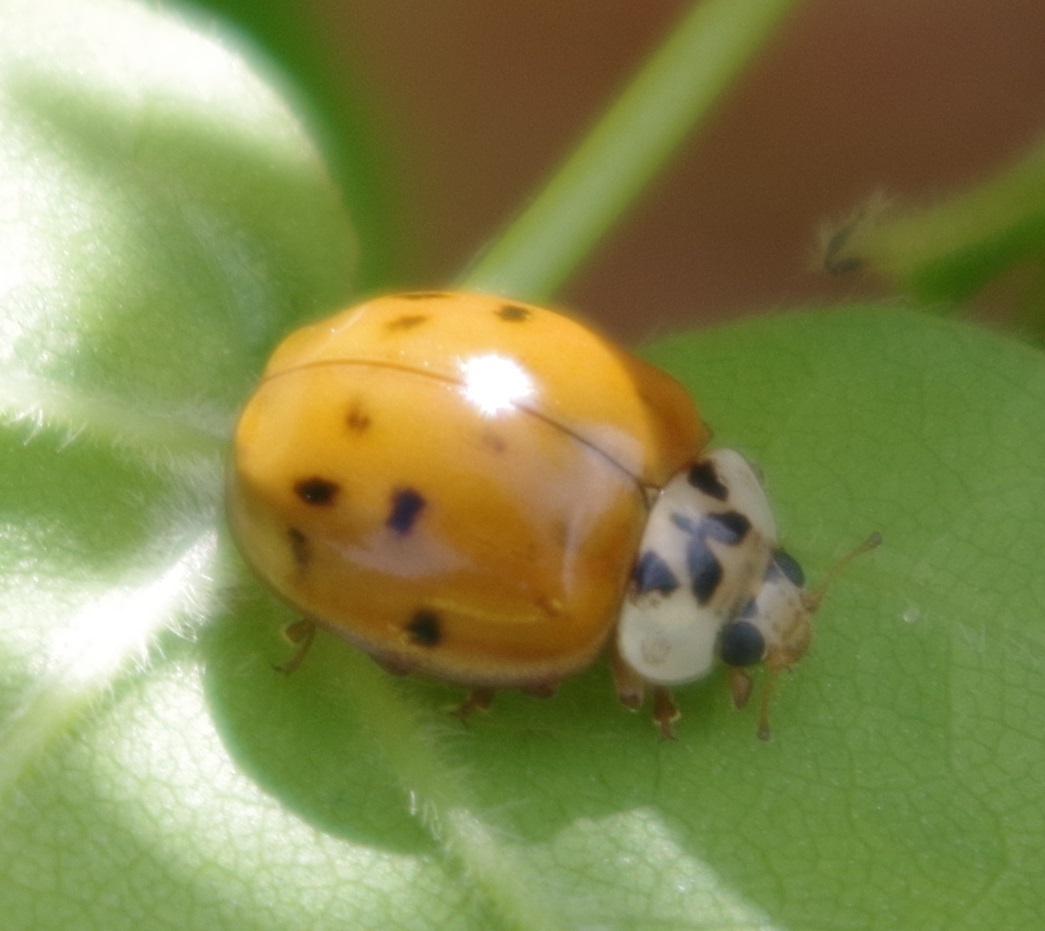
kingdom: Animalia
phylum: Arthropoda
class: Insecta
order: Coleoptera
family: Coccinellidae
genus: Harmonia
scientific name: Harmonia axyridis
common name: Harlequin ladybird
